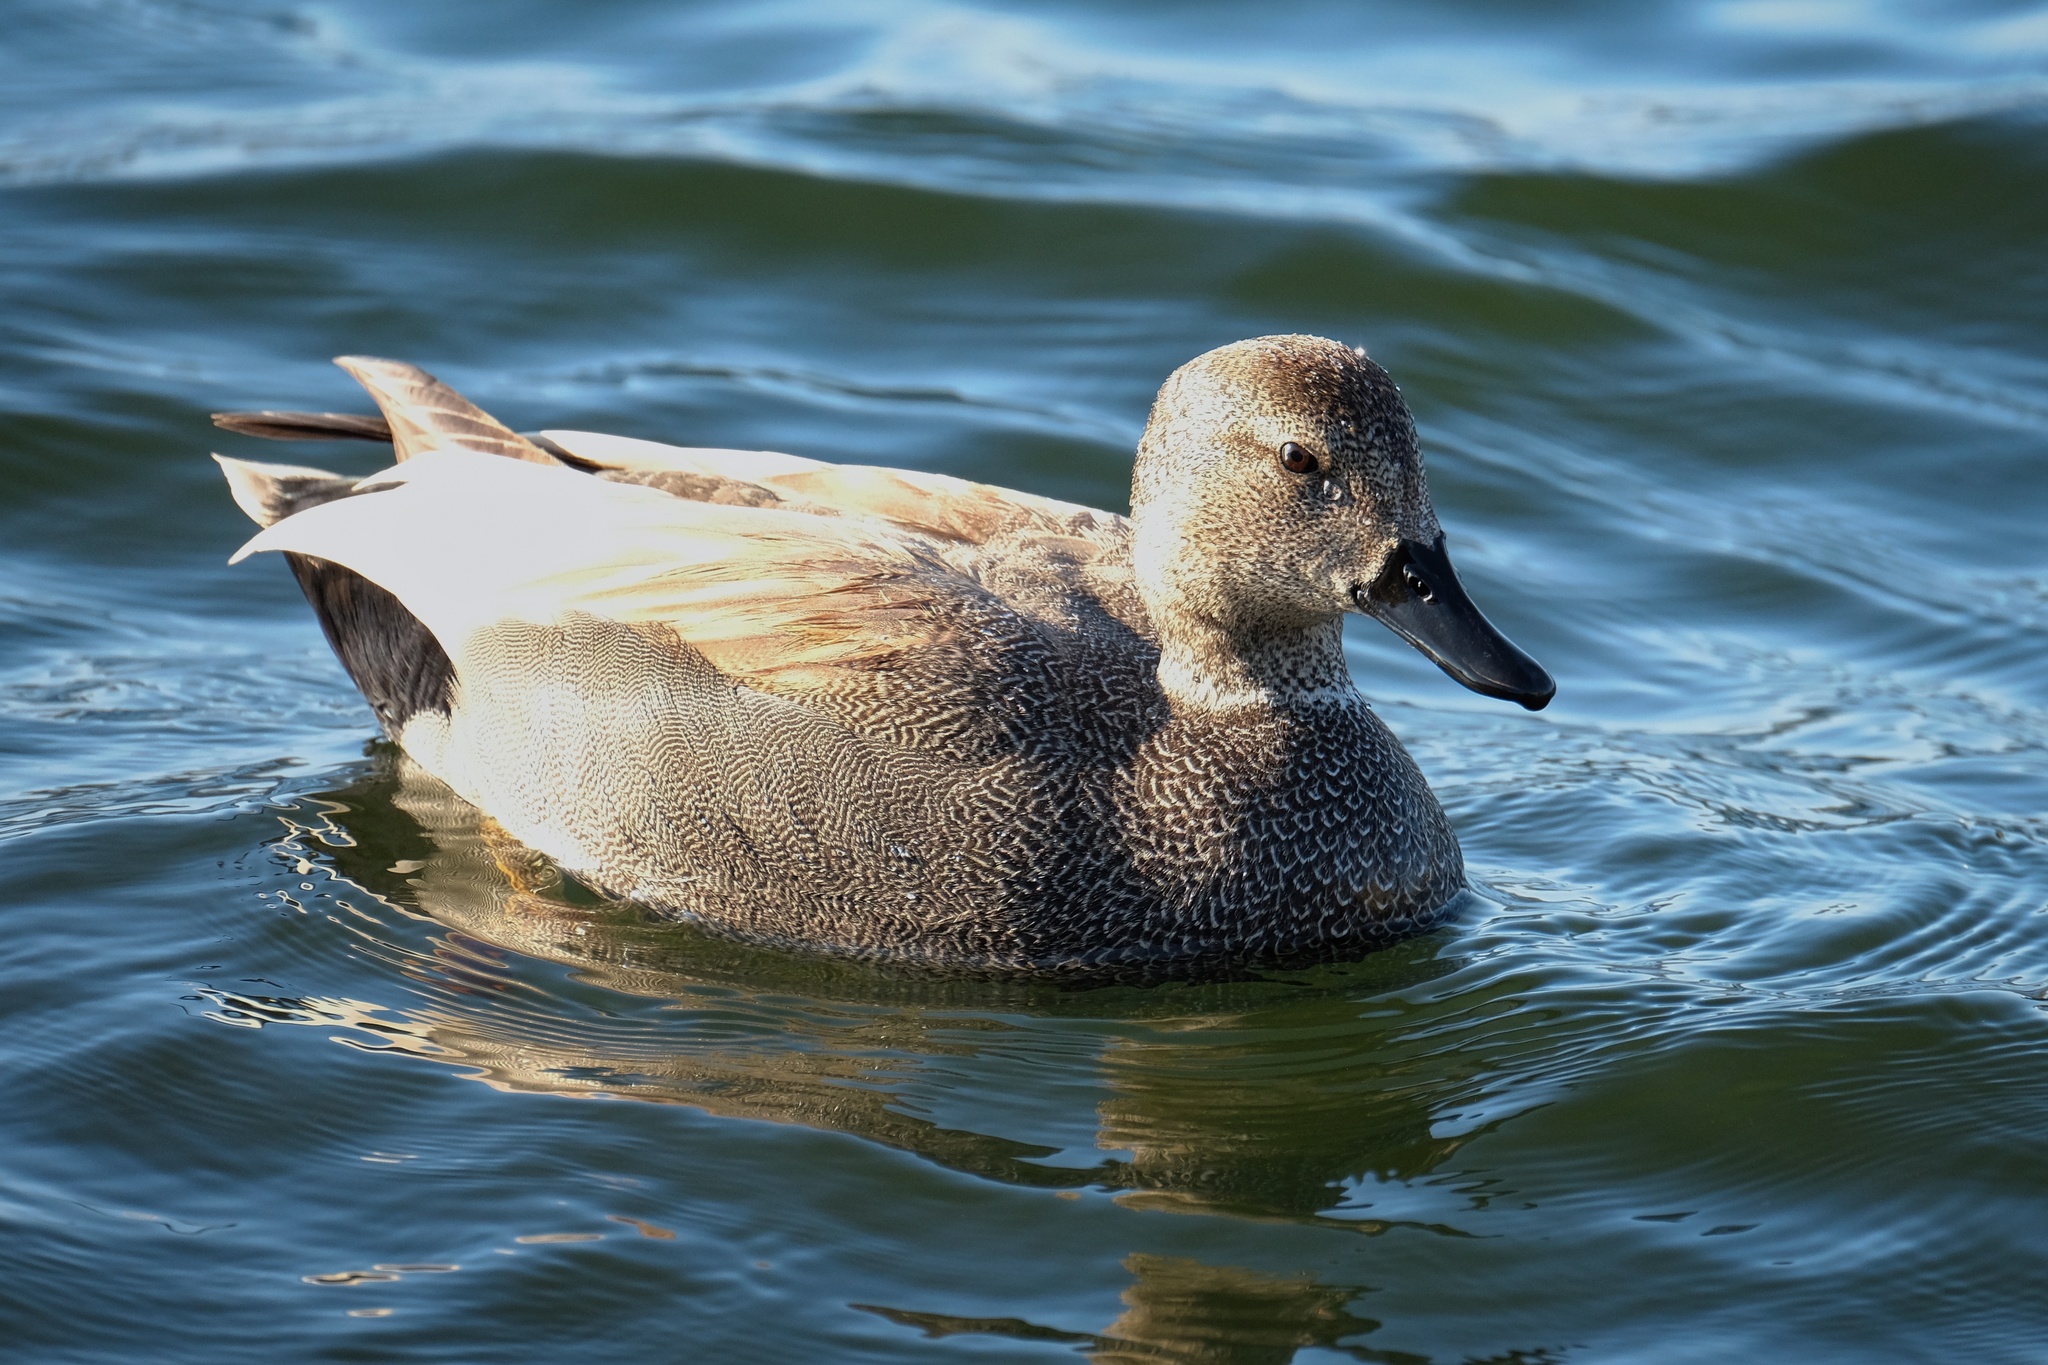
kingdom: Animalia
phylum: Chordata
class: Aves
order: Anseriformes
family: Anatidae
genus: Mareca
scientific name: Mareca strepera
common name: Gadwall
